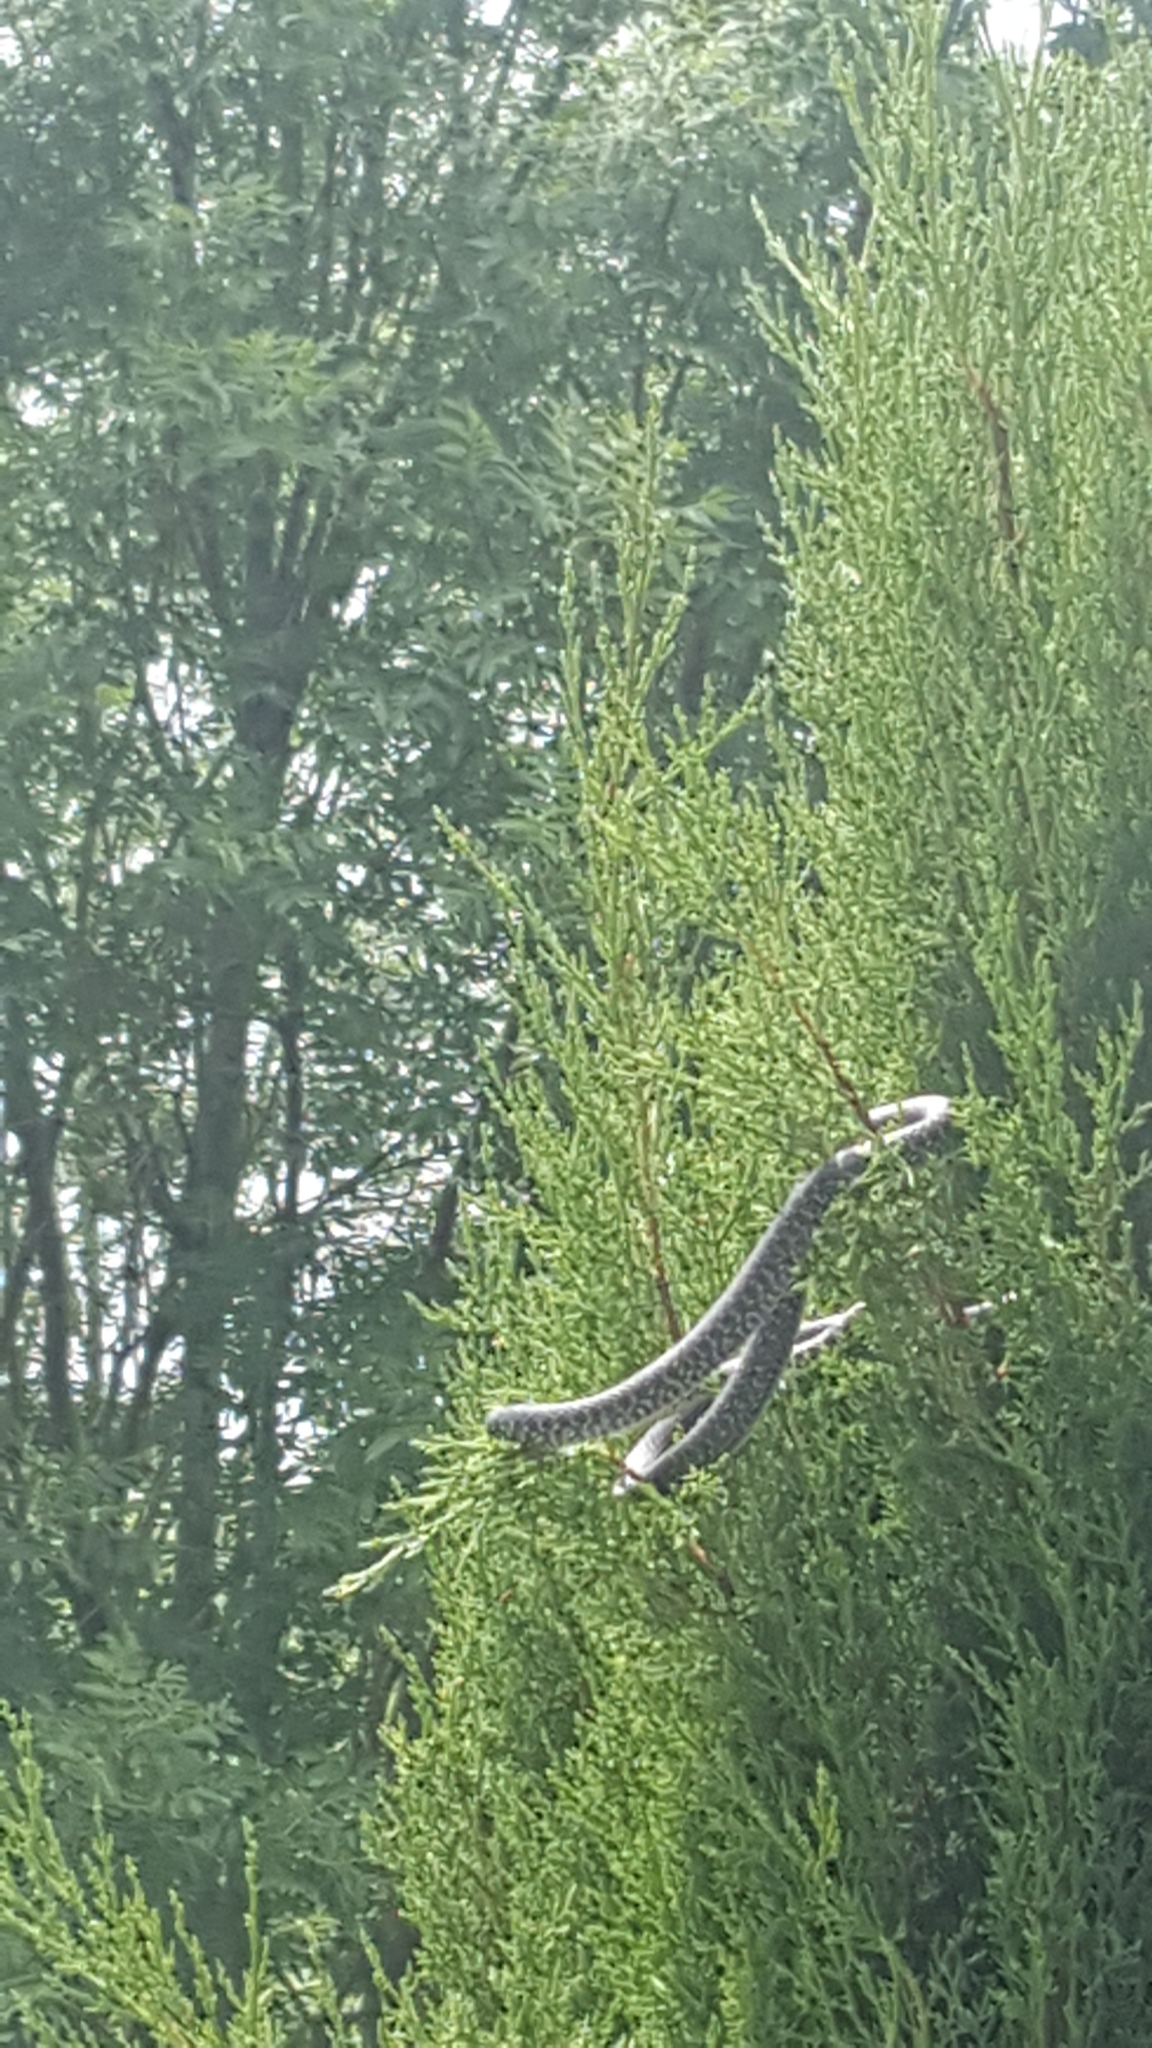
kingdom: Animalia
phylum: Chordata
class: Squamata
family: Colubridae
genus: Hierophis
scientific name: Hierophis viridiflavus
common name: Green whip snake
